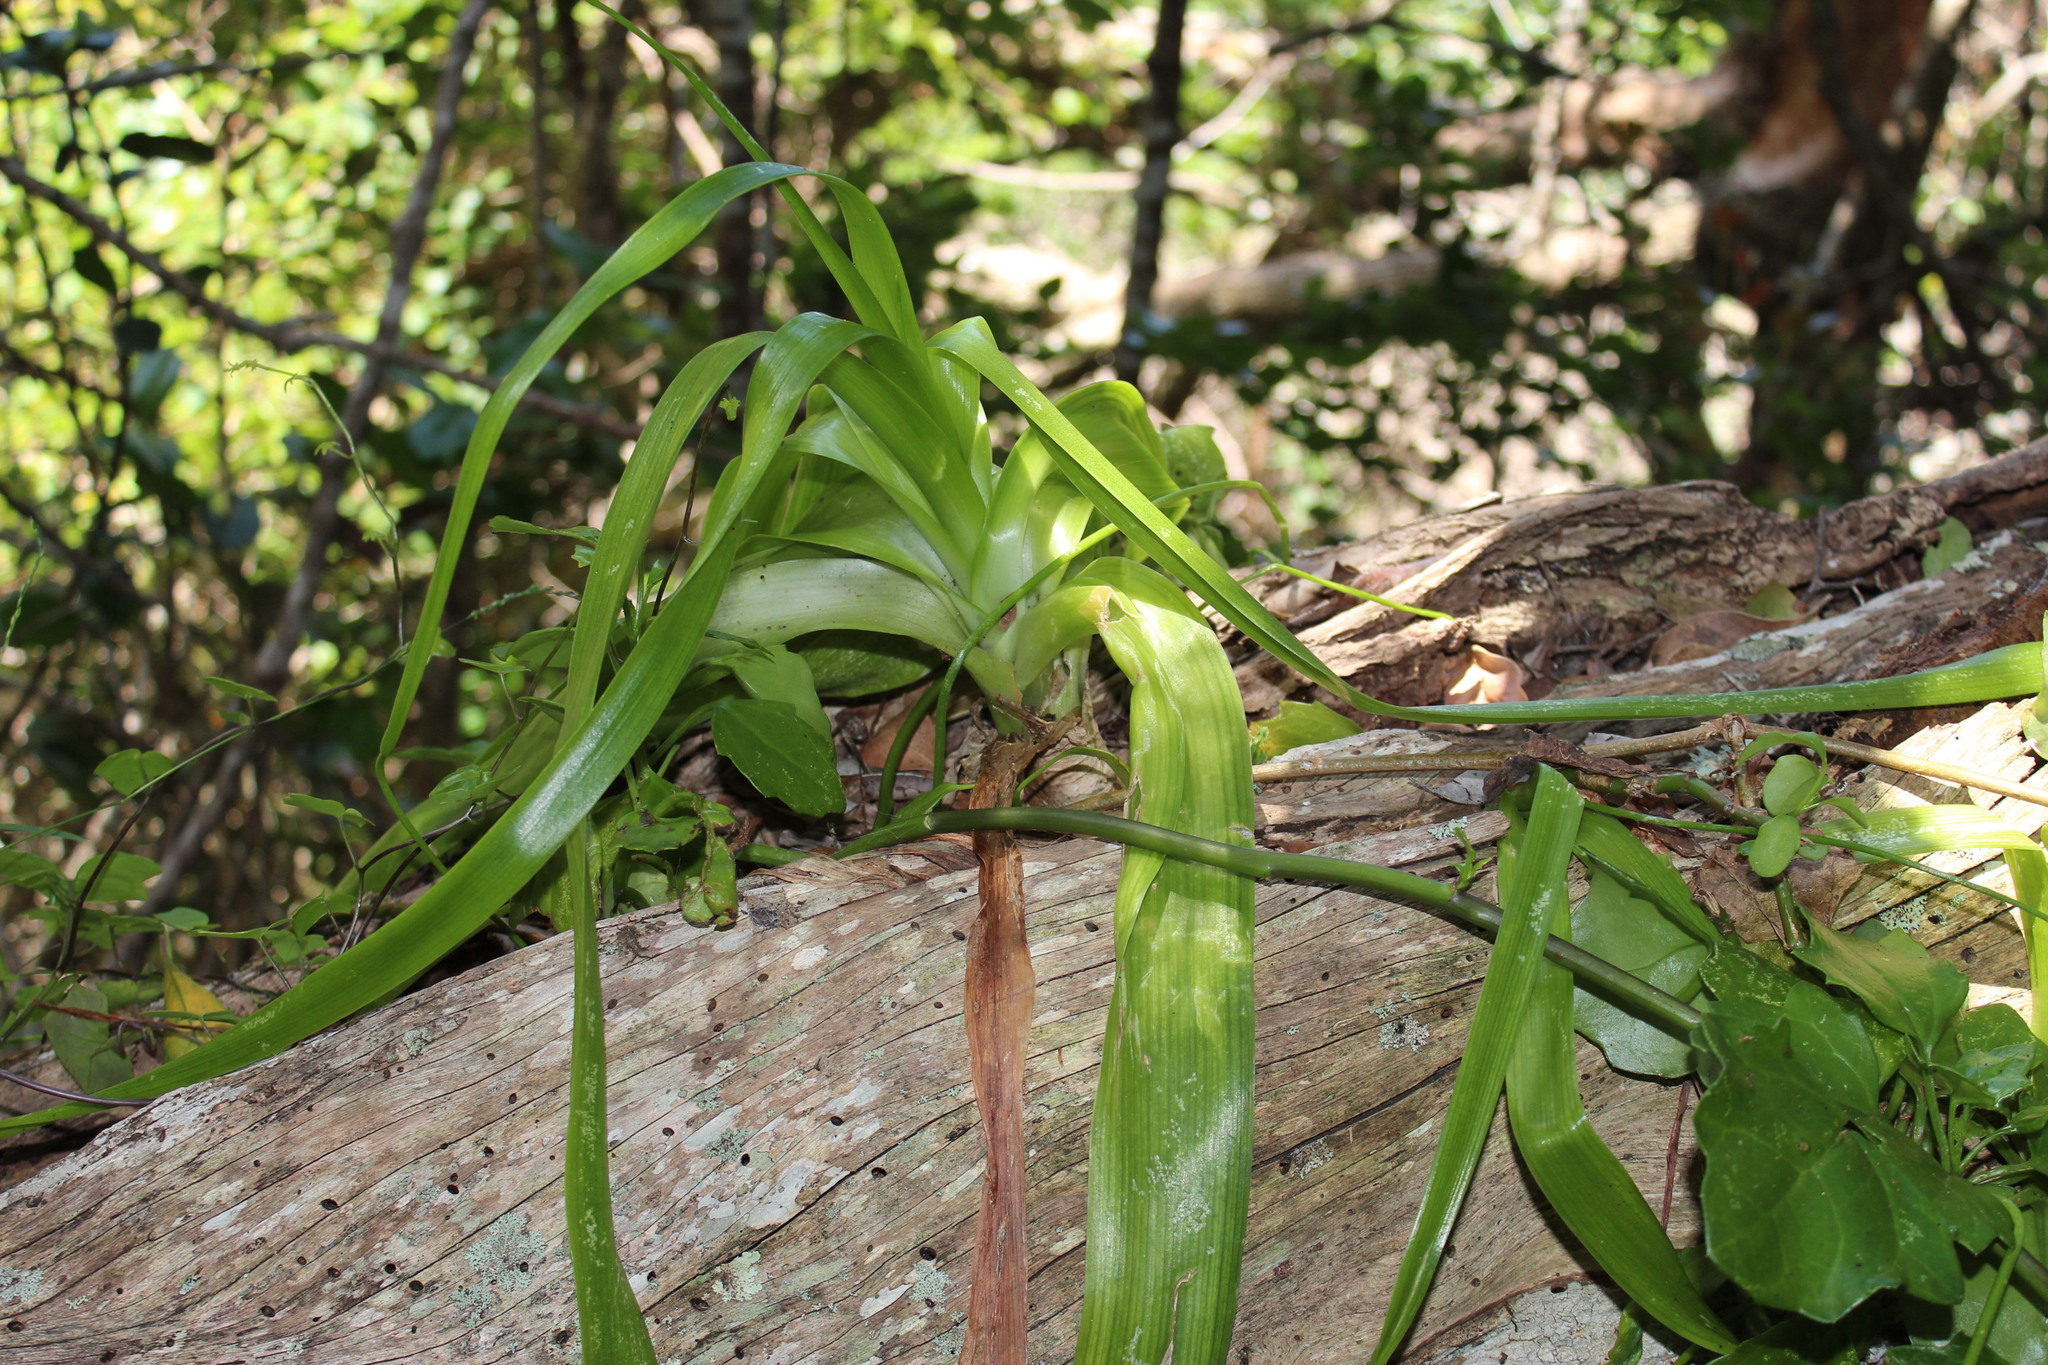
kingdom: Plantae
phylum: Tracheophyta
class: Liliopsida
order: Asparagales
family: Asparagaceae
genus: Albuca
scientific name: Albuca bracteata
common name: Sea-onion
